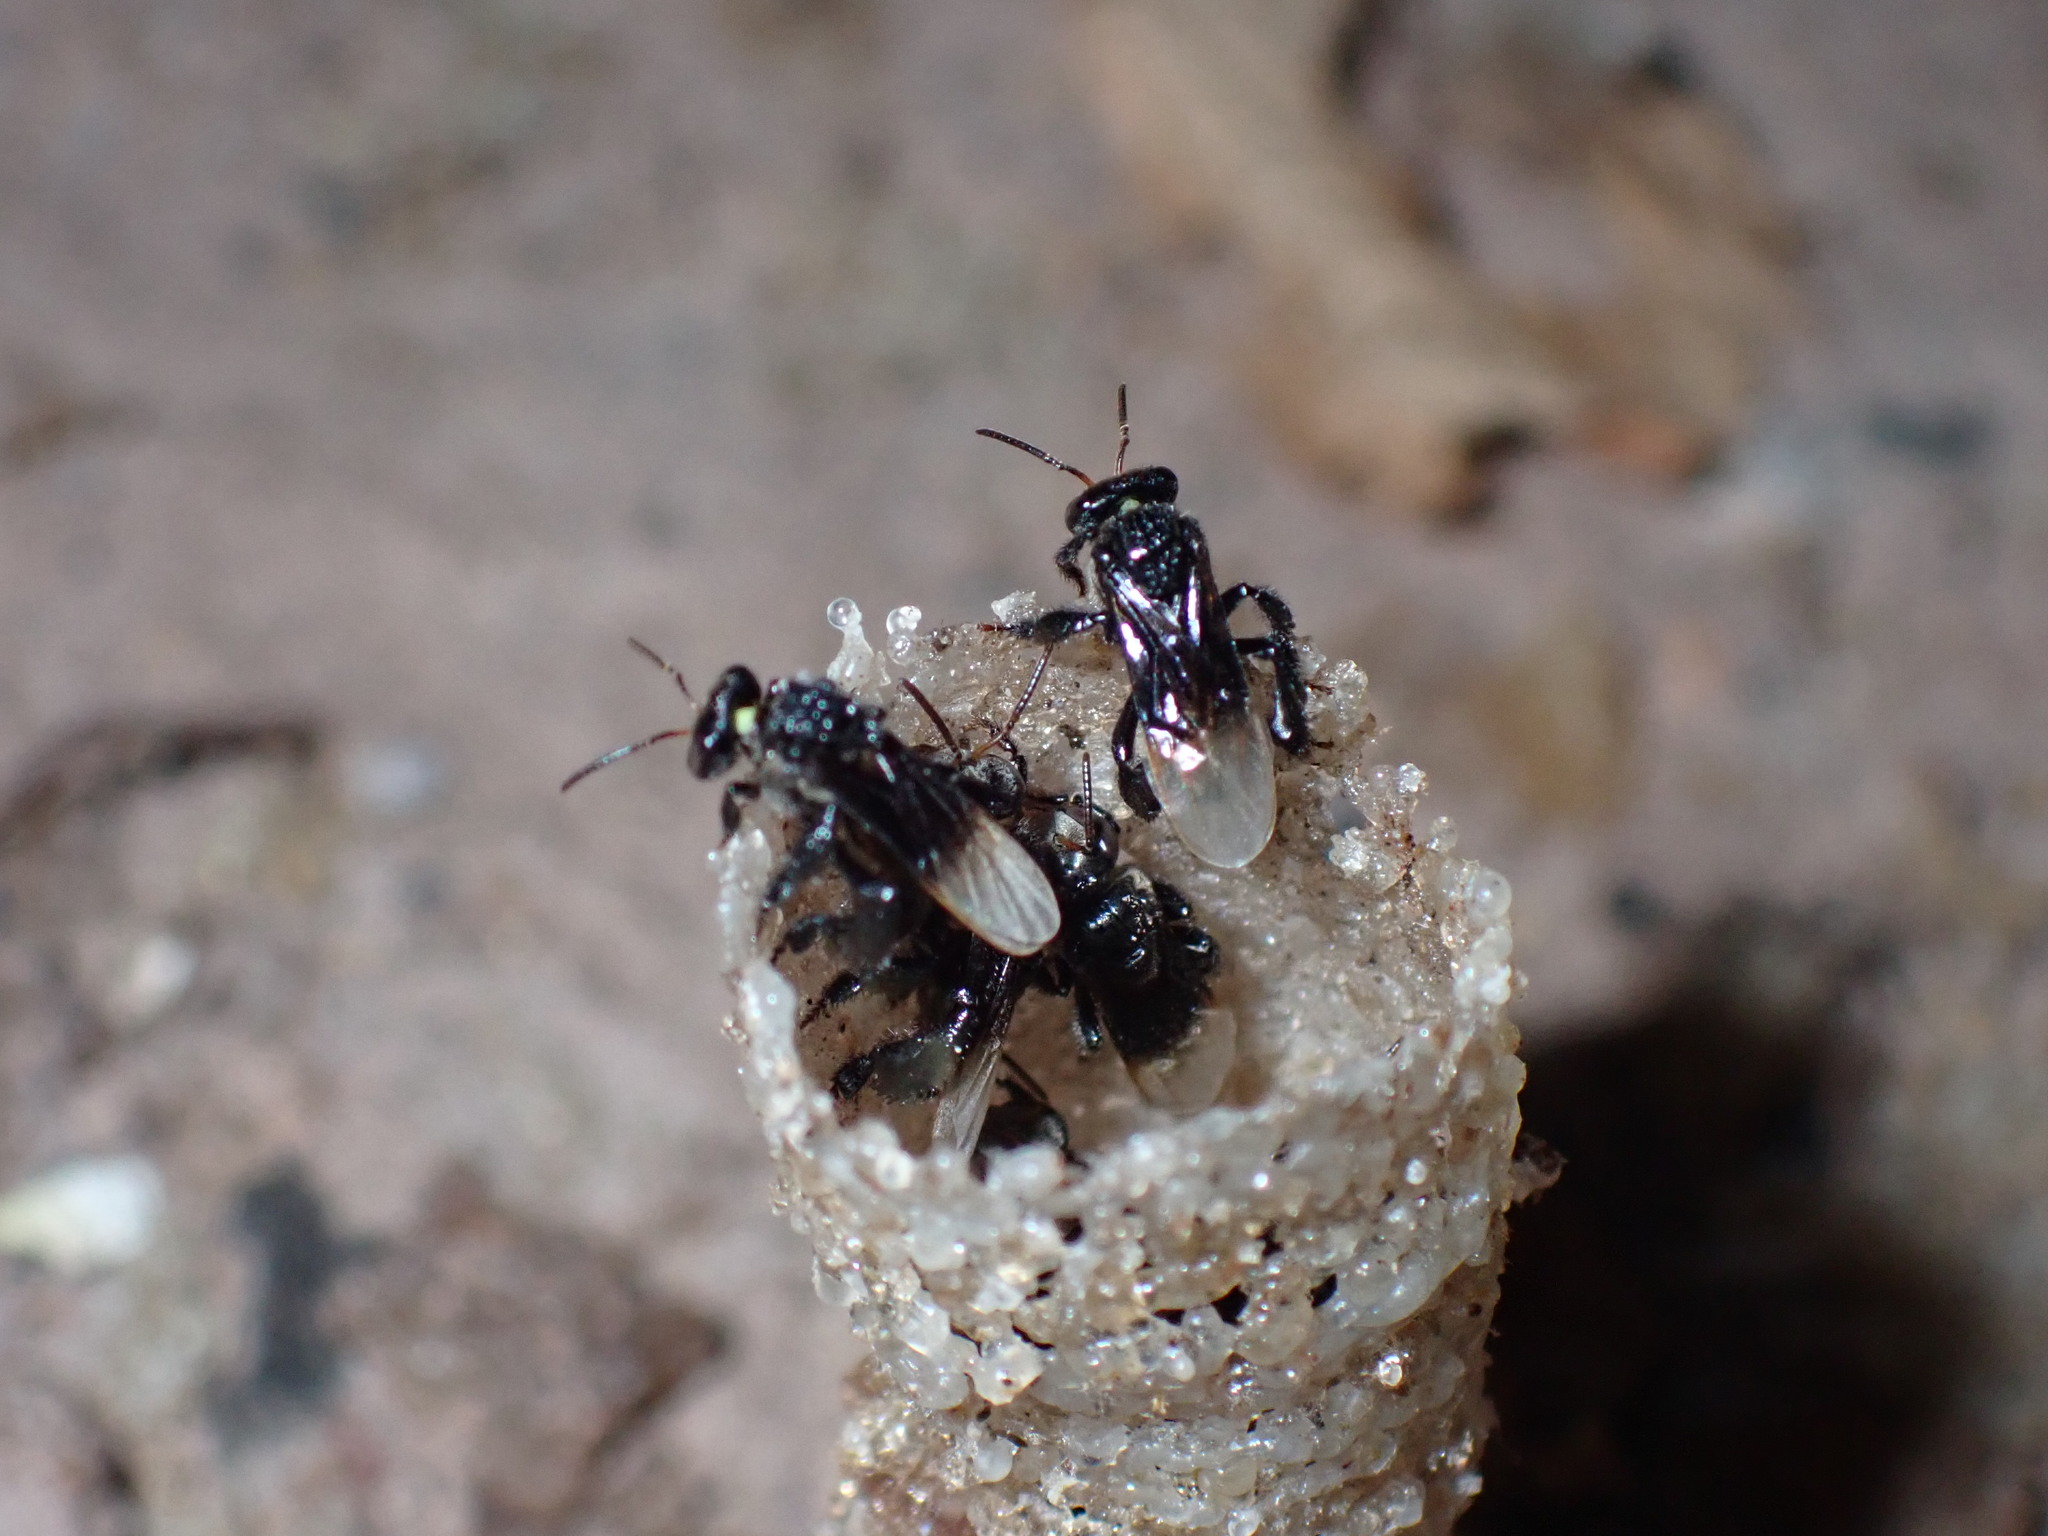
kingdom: Animalia
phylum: Arthropoda
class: Insecta
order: Hymenoptera
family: Apidae
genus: Tetragonula
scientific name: Tetragonula collina
